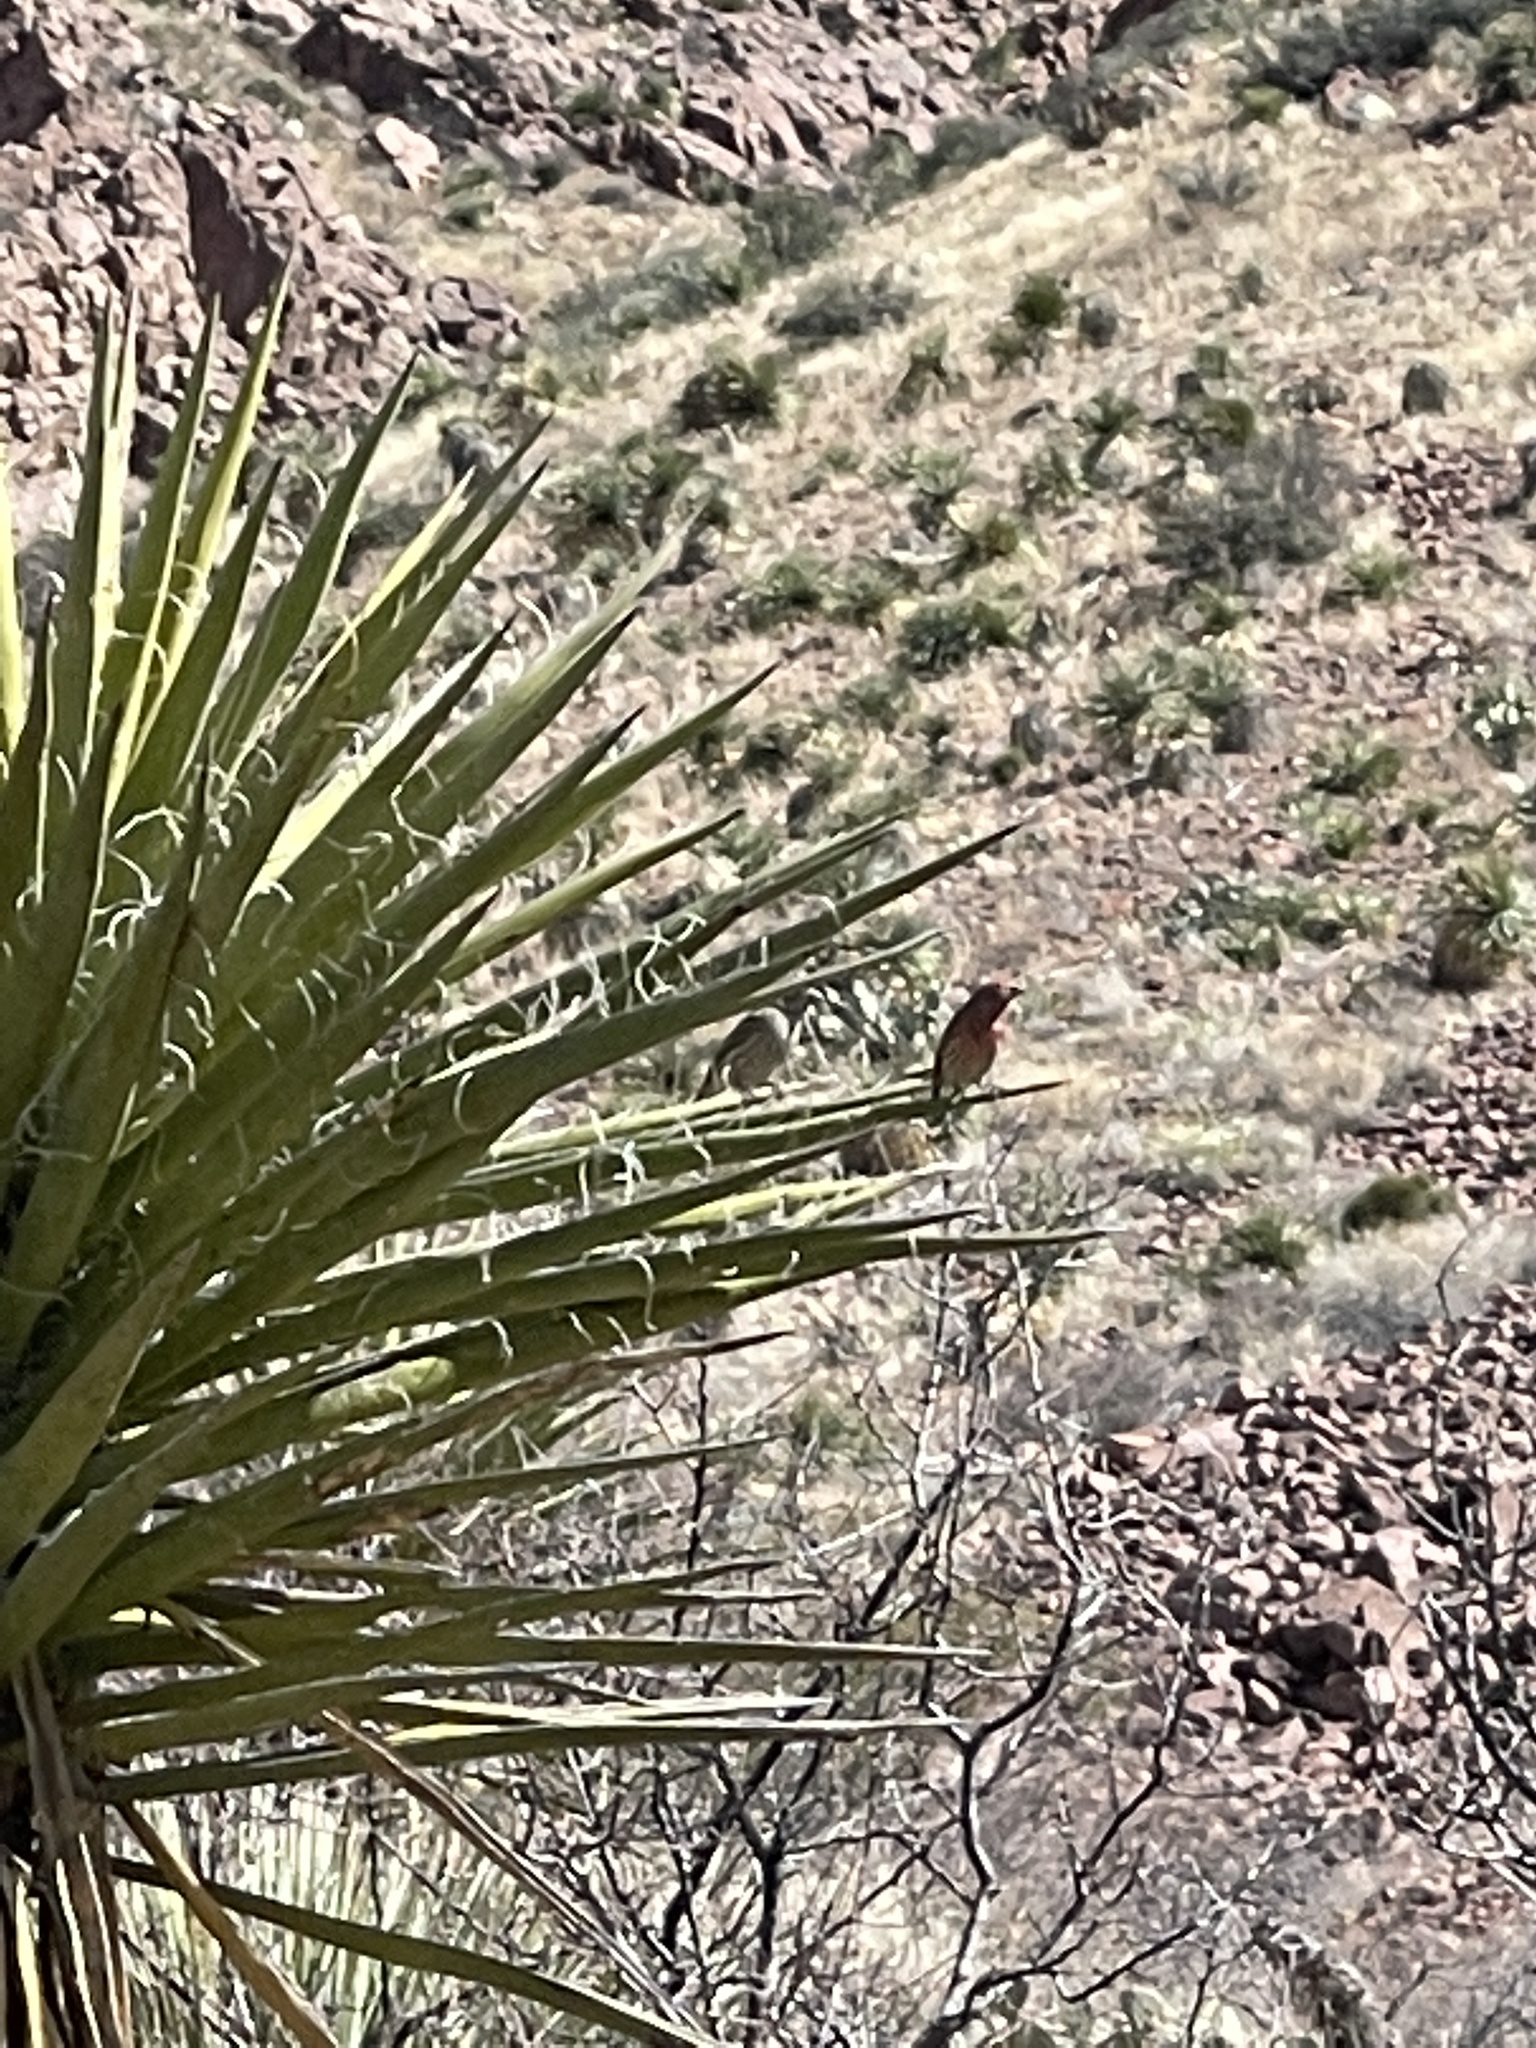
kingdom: Animalia
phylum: Chordata
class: Aves
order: Passeriformes
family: Fringillidae
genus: Haemorhous
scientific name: Haemorhous mexicanus
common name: House finch
